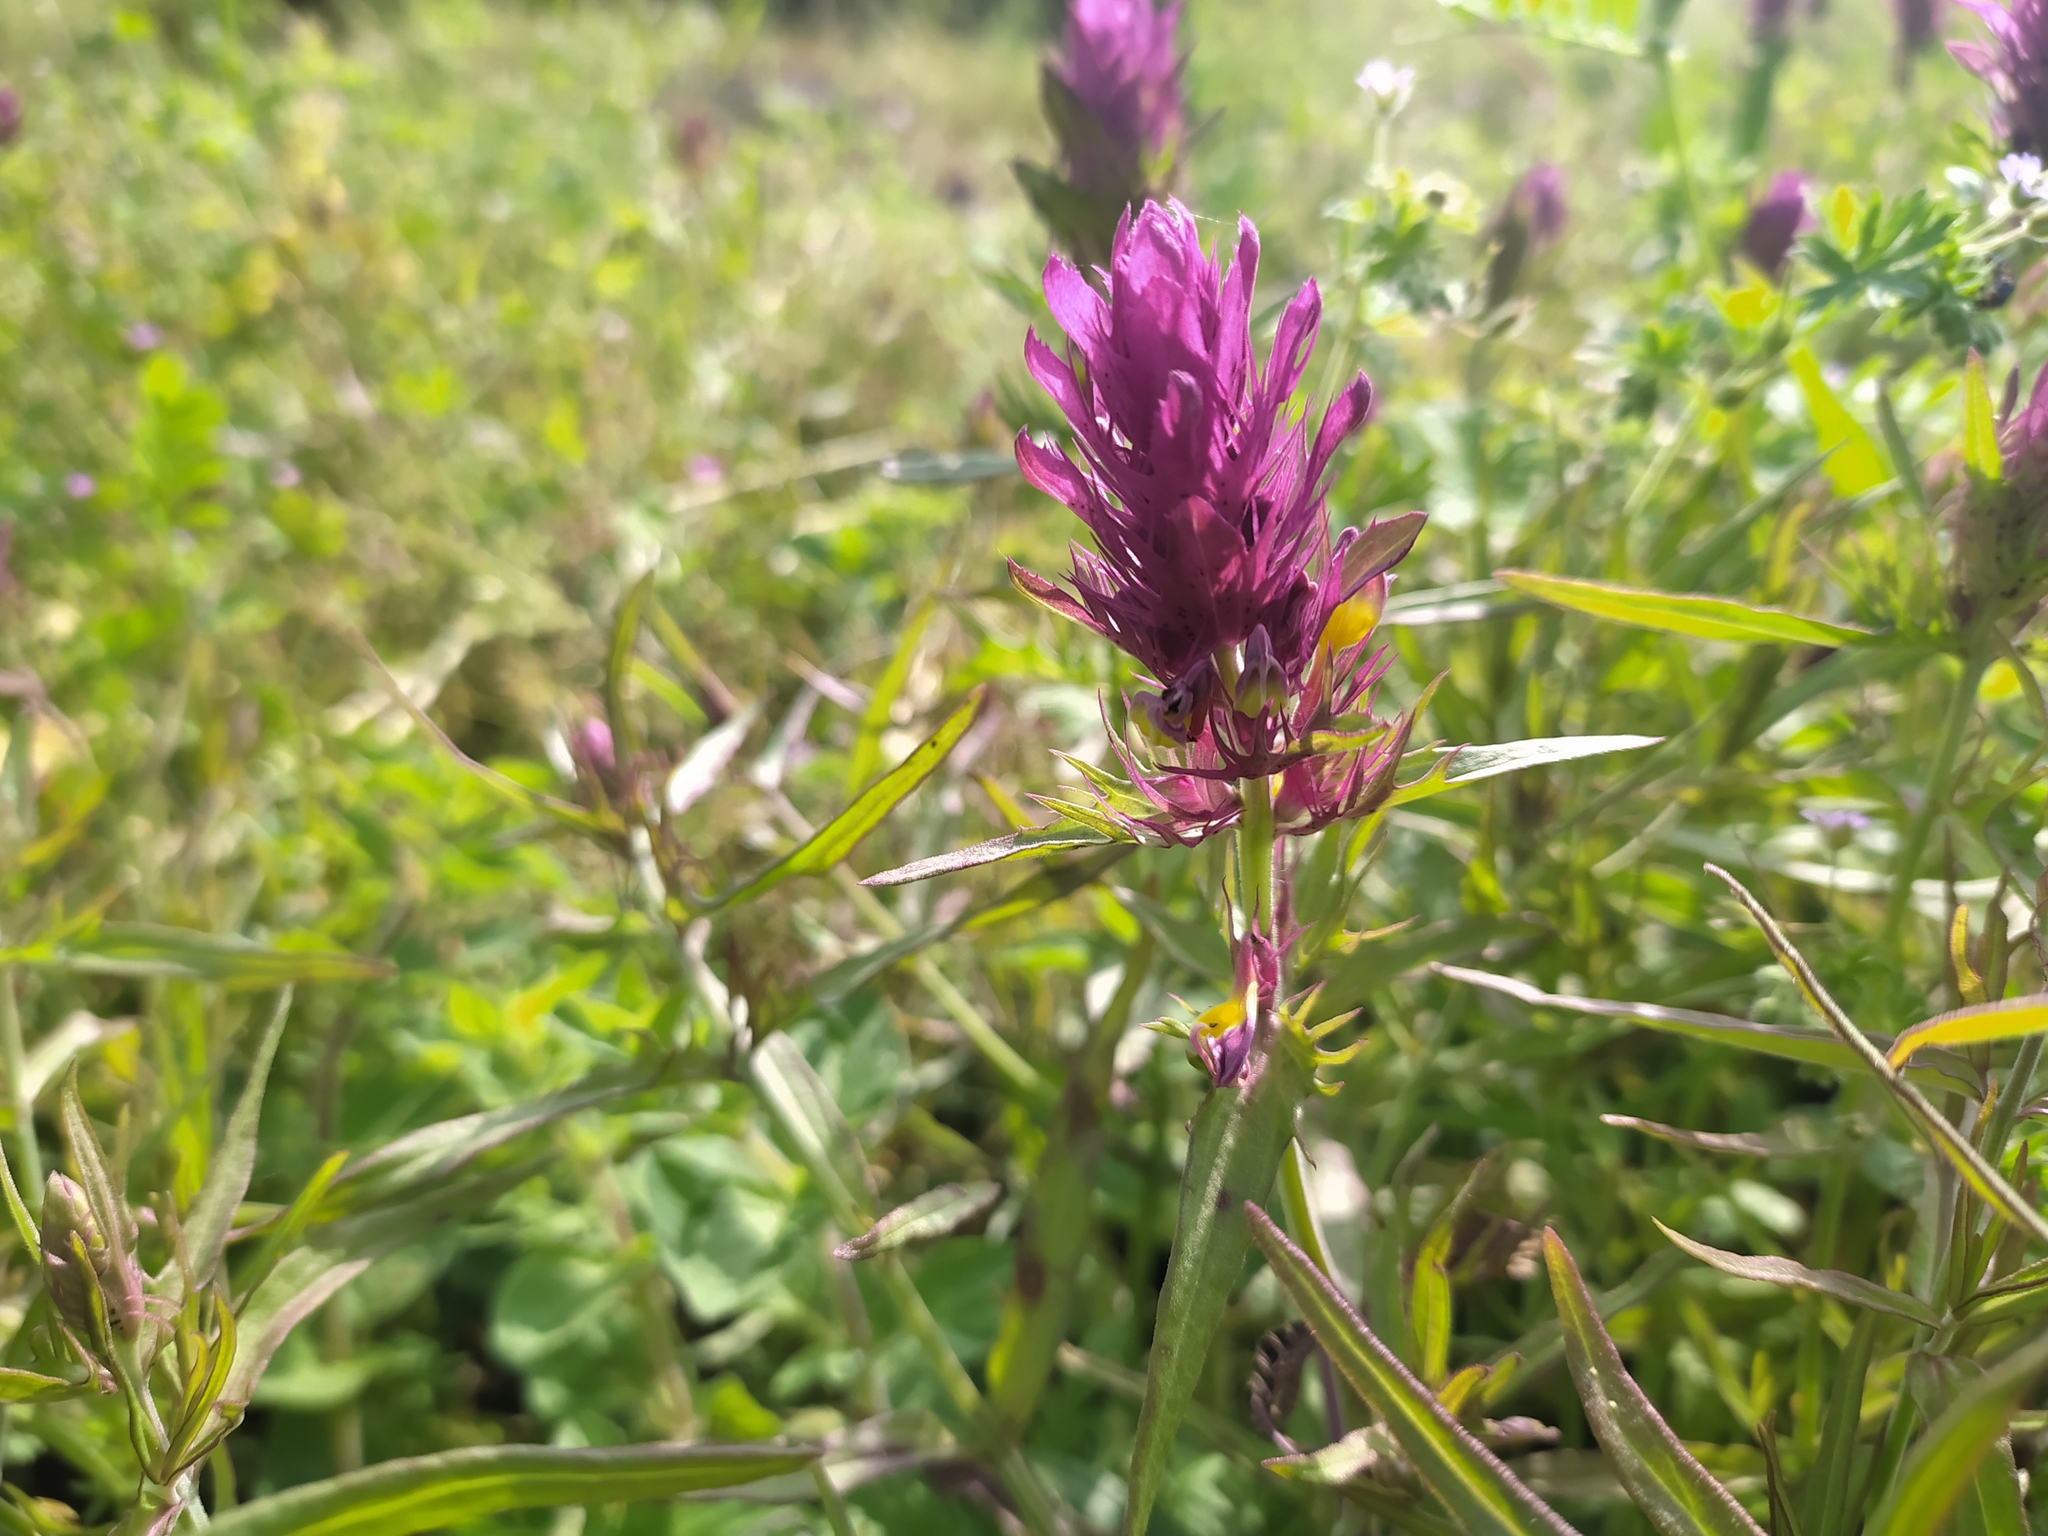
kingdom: Plantae
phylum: Tracheophyta
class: Magnoliopsida
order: Lamiales
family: Orobanchaceae
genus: Melampyrum
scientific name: Melampyrum arvense
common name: Field cow-wheat
